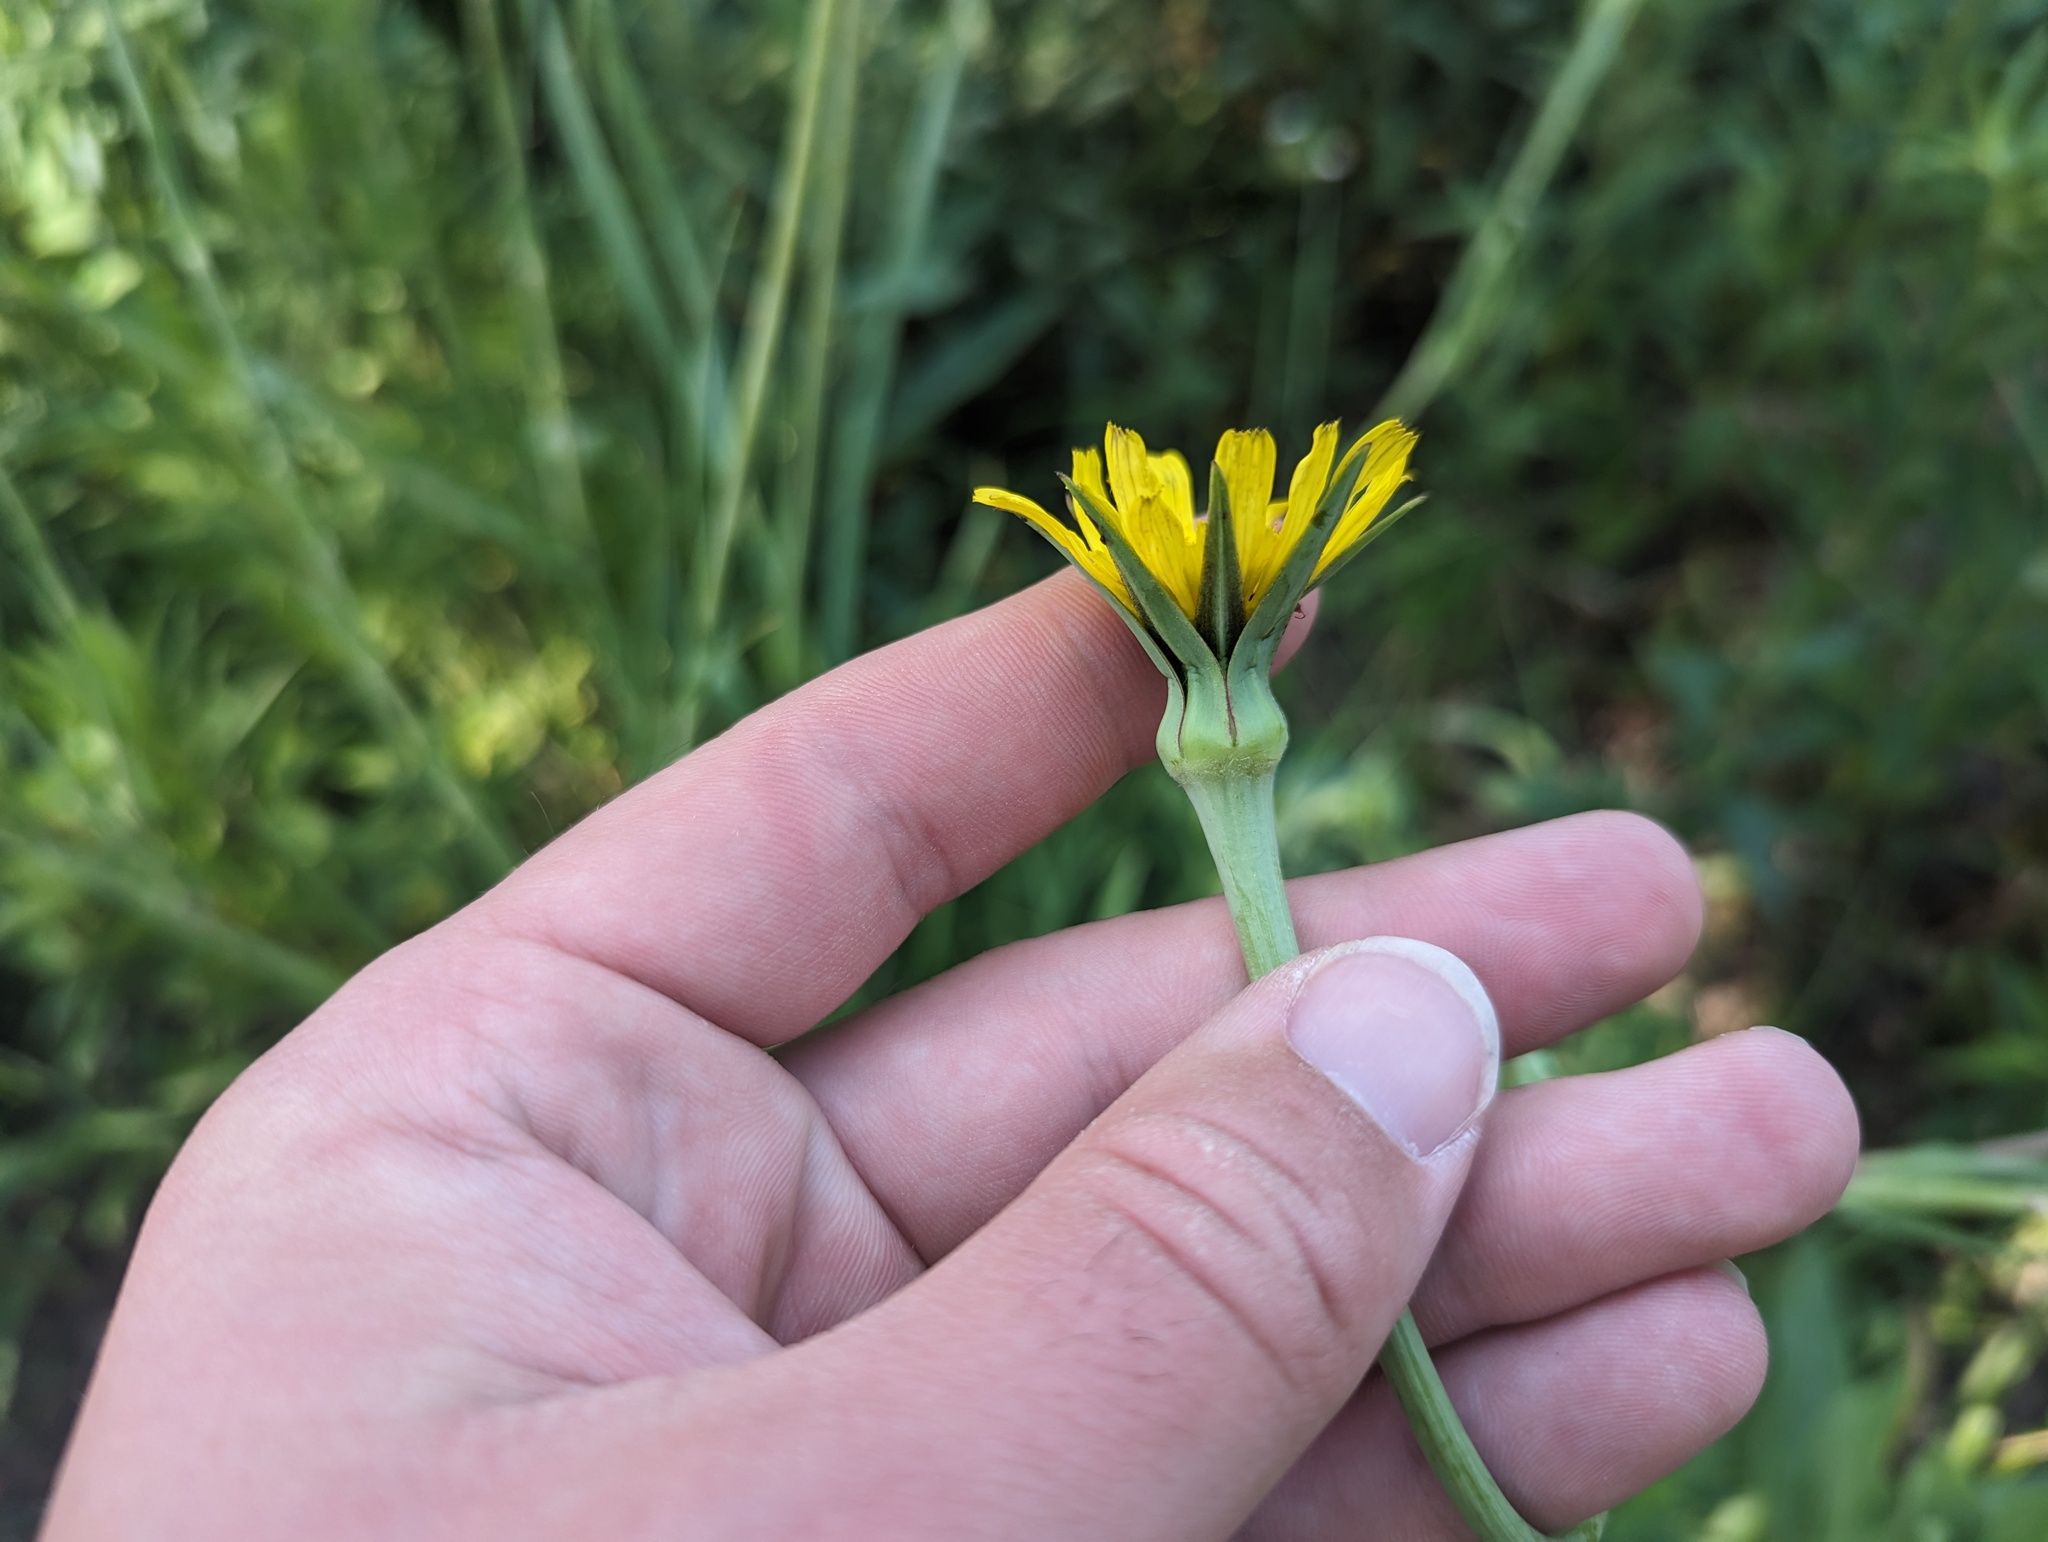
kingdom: Plantae
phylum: Tracheophyta
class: Magnoliopsida
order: Asterales
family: Asteraceae
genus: Tragopogon
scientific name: Tragopogon pratensis
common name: Goat's-beard
